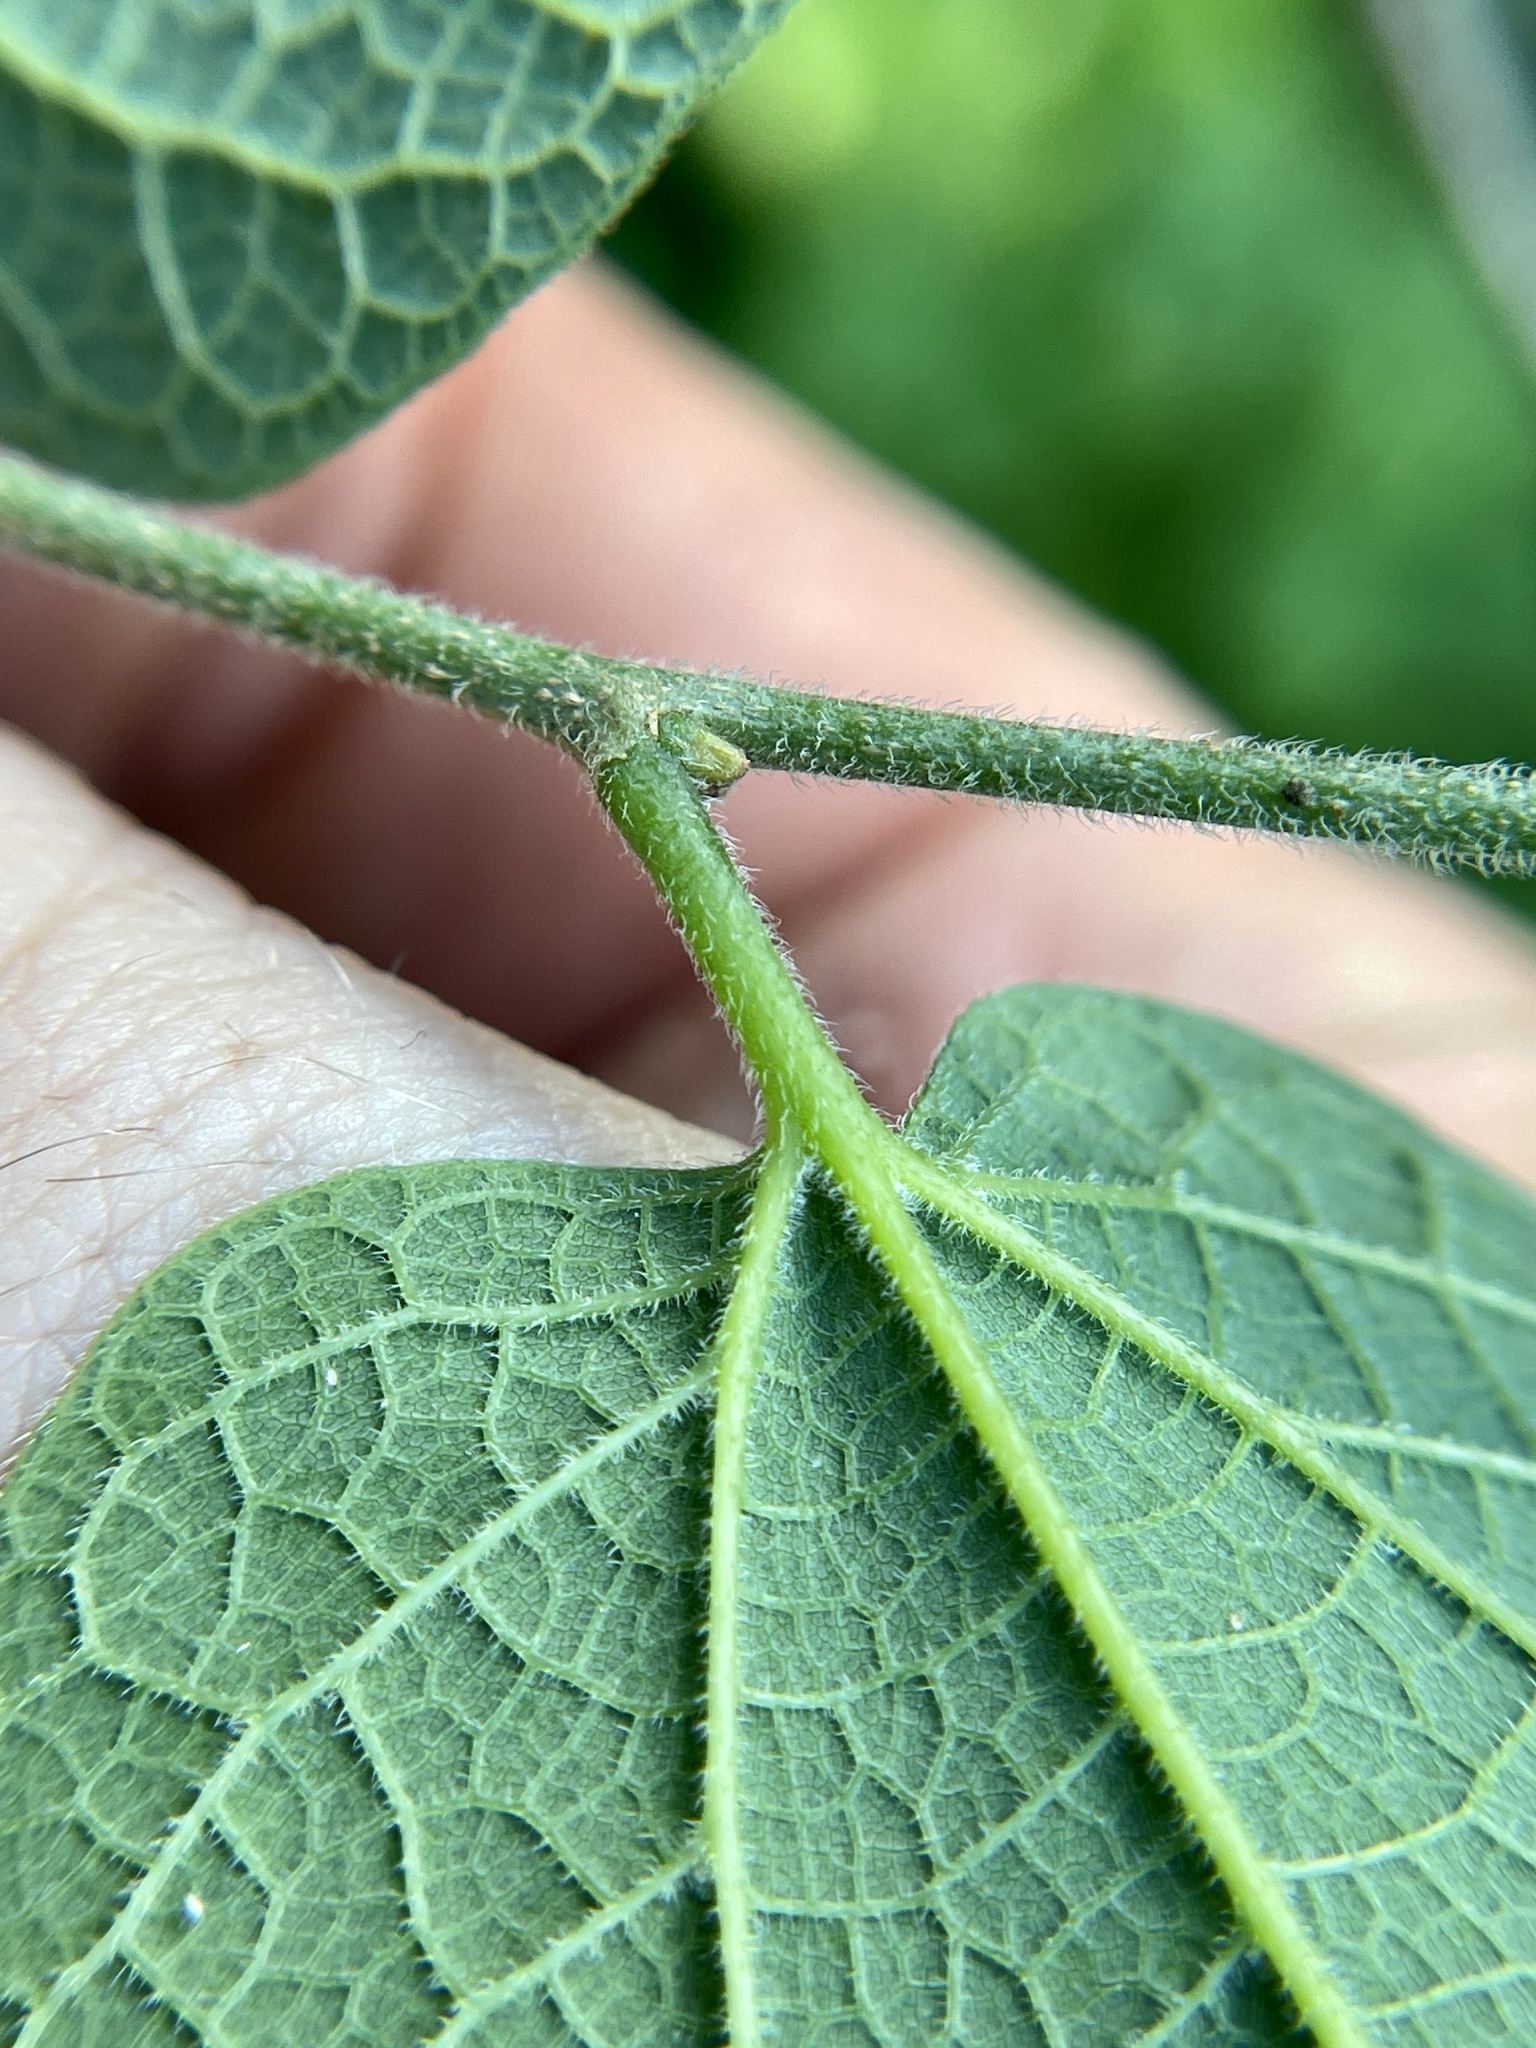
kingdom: Plantae
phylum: Tracheophyta
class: Magnoliopsida
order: Rosales
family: Cannabaceae
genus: Celtis
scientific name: Celtis reticulata
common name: Netleaf hackberry
